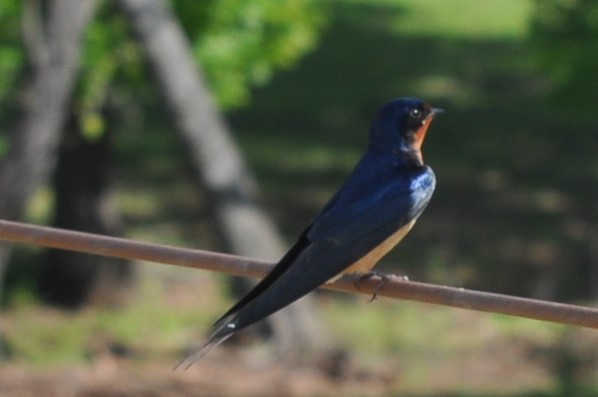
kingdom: Animalia
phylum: Chordata
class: Aves
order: Passeriformes
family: Hirundinidae
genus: Hirundo
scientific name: Hirundo rustica
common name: Barn swallow
